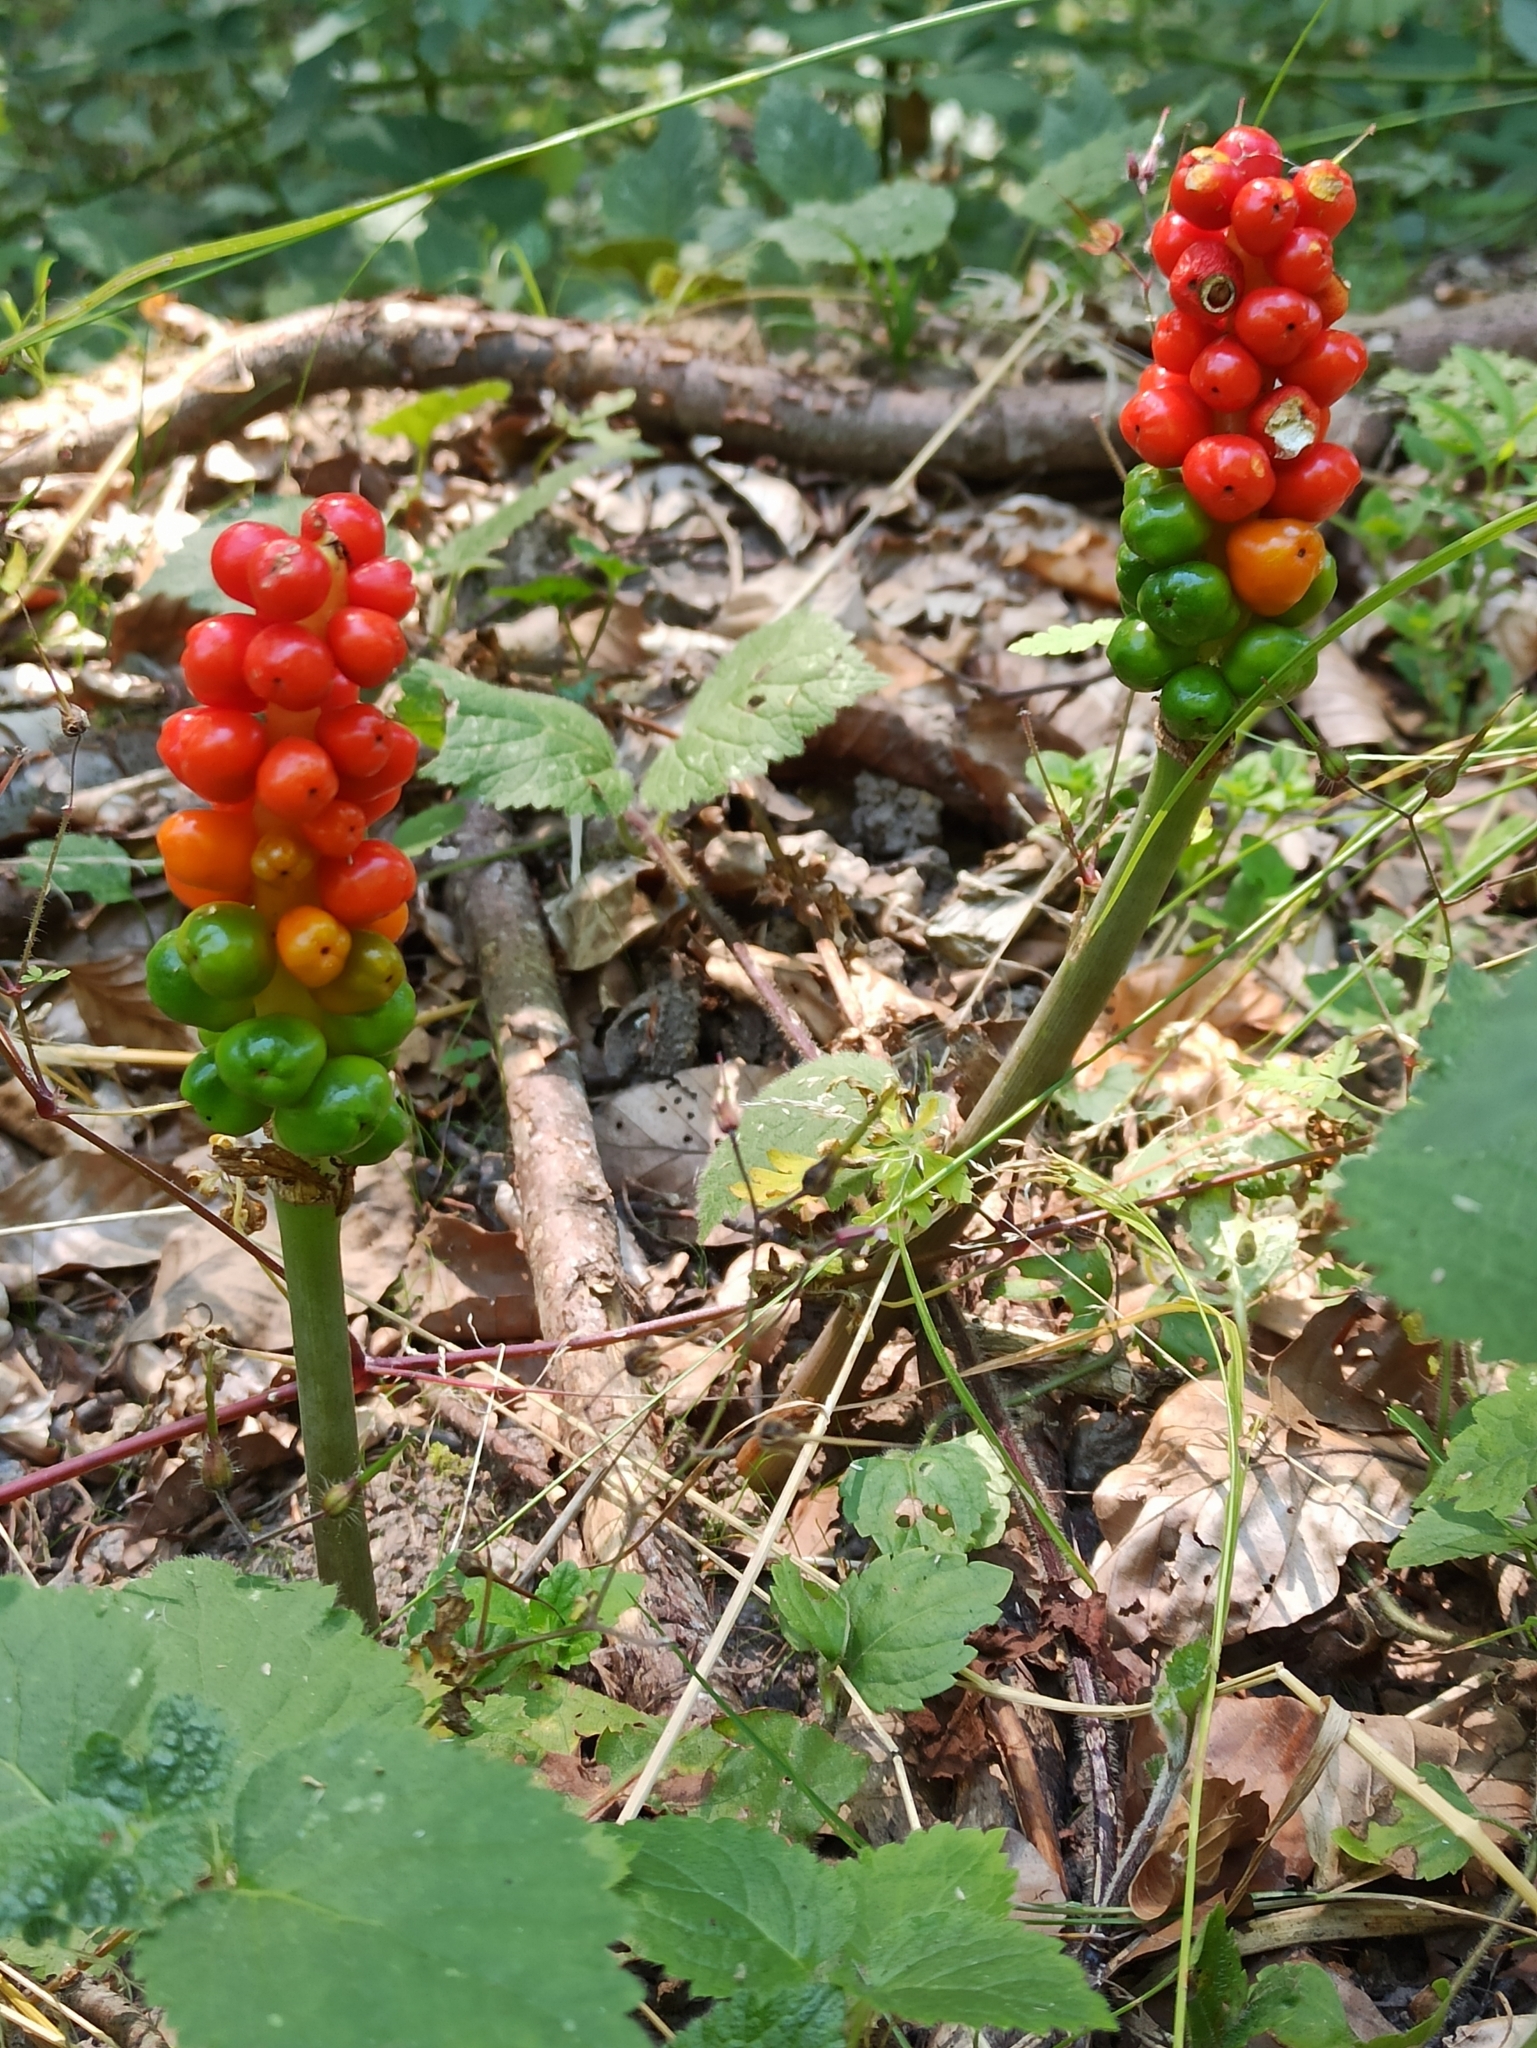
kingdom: Plantae
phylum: Tracheophyta
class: Liliopsida
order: Alismatales
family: Araceae
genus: Arum
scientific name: Arum maculatum
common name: Lords-and-ladies
